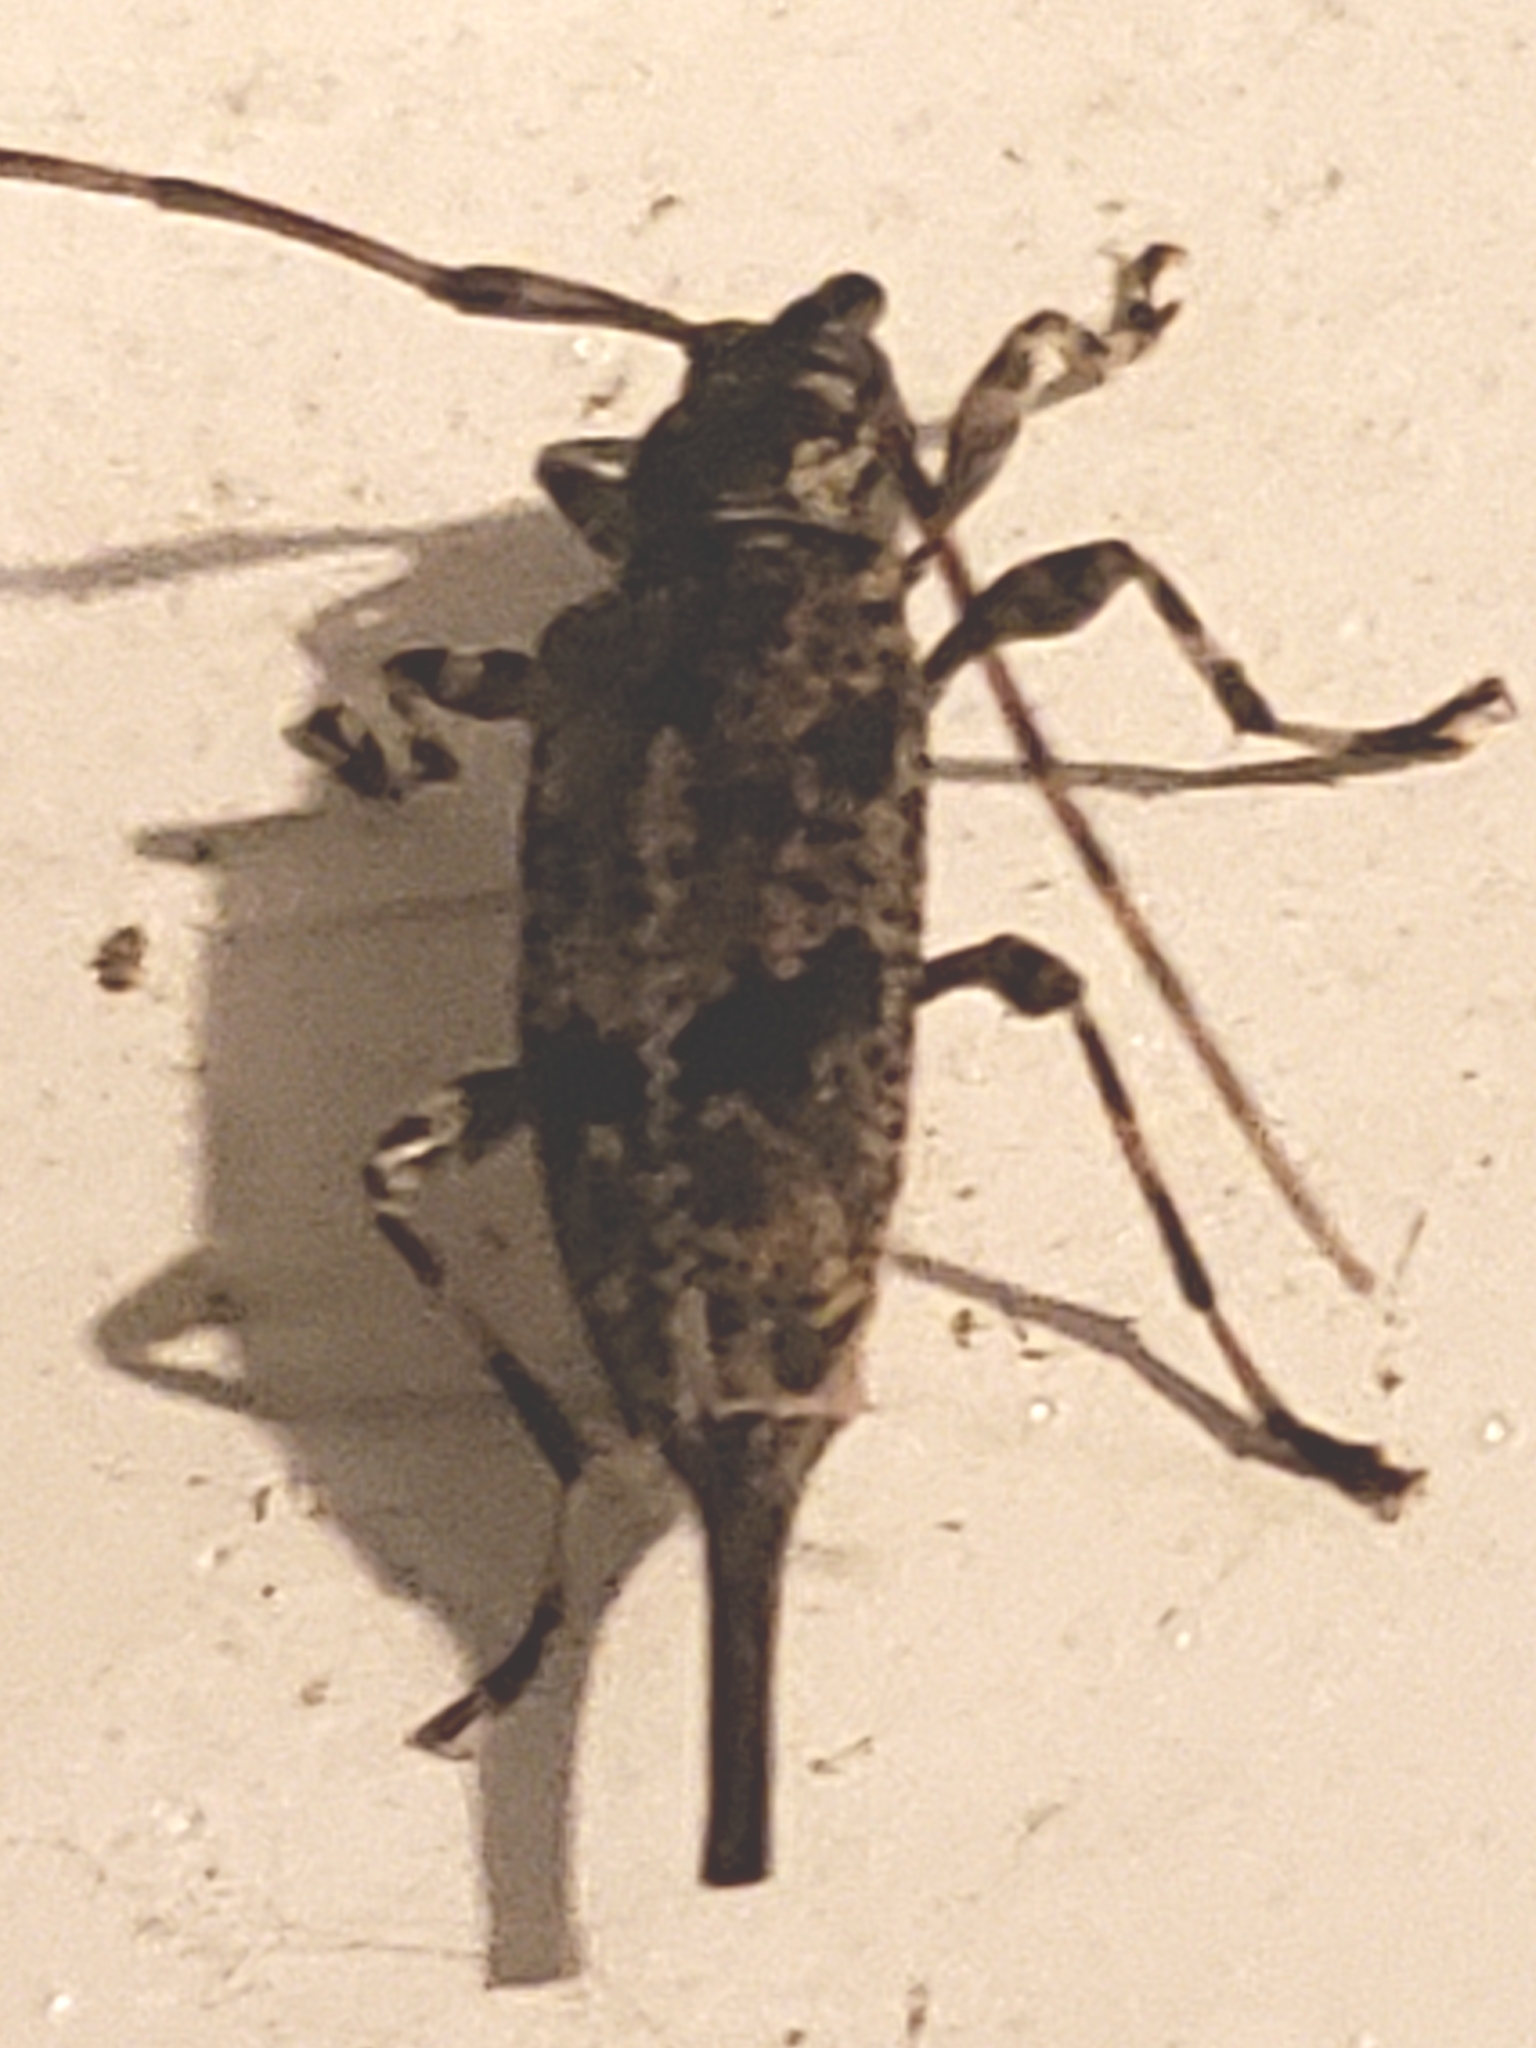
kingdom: Animalia
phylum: Arthropoda
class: Insecta
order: Coleoptera
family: Cerambycidae
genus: Graphisurus
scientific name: Graphisurus fasciatus
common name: Banded graphisurus
